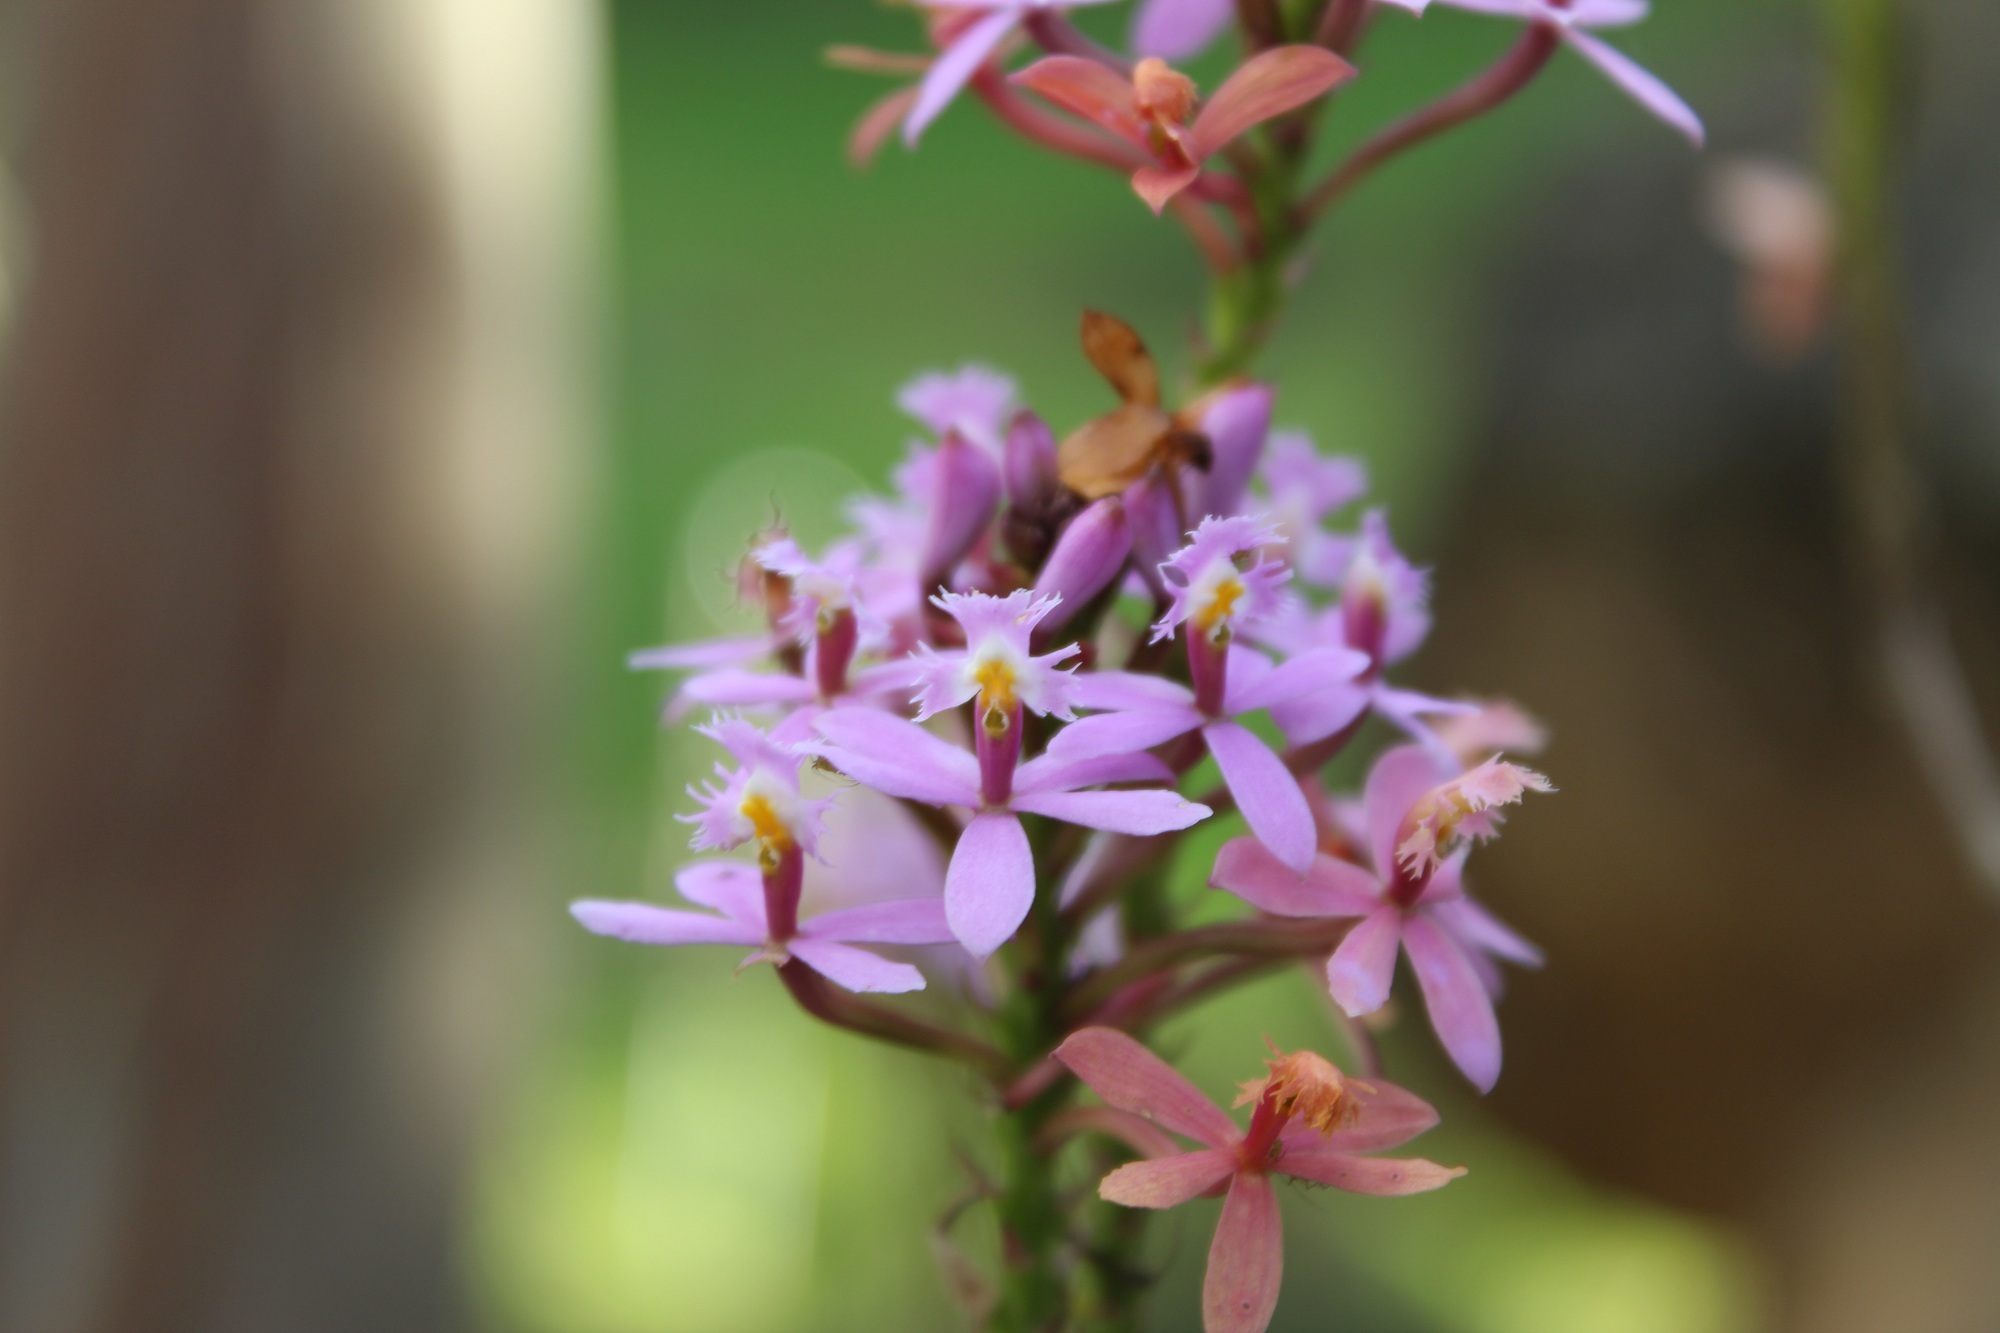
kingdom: Plantae
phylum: Tracheophyta
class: Liliopsida
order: Asparagales
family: Orchidaceae
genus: Epidendrum
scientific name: Epidendrum arachnoglossum
